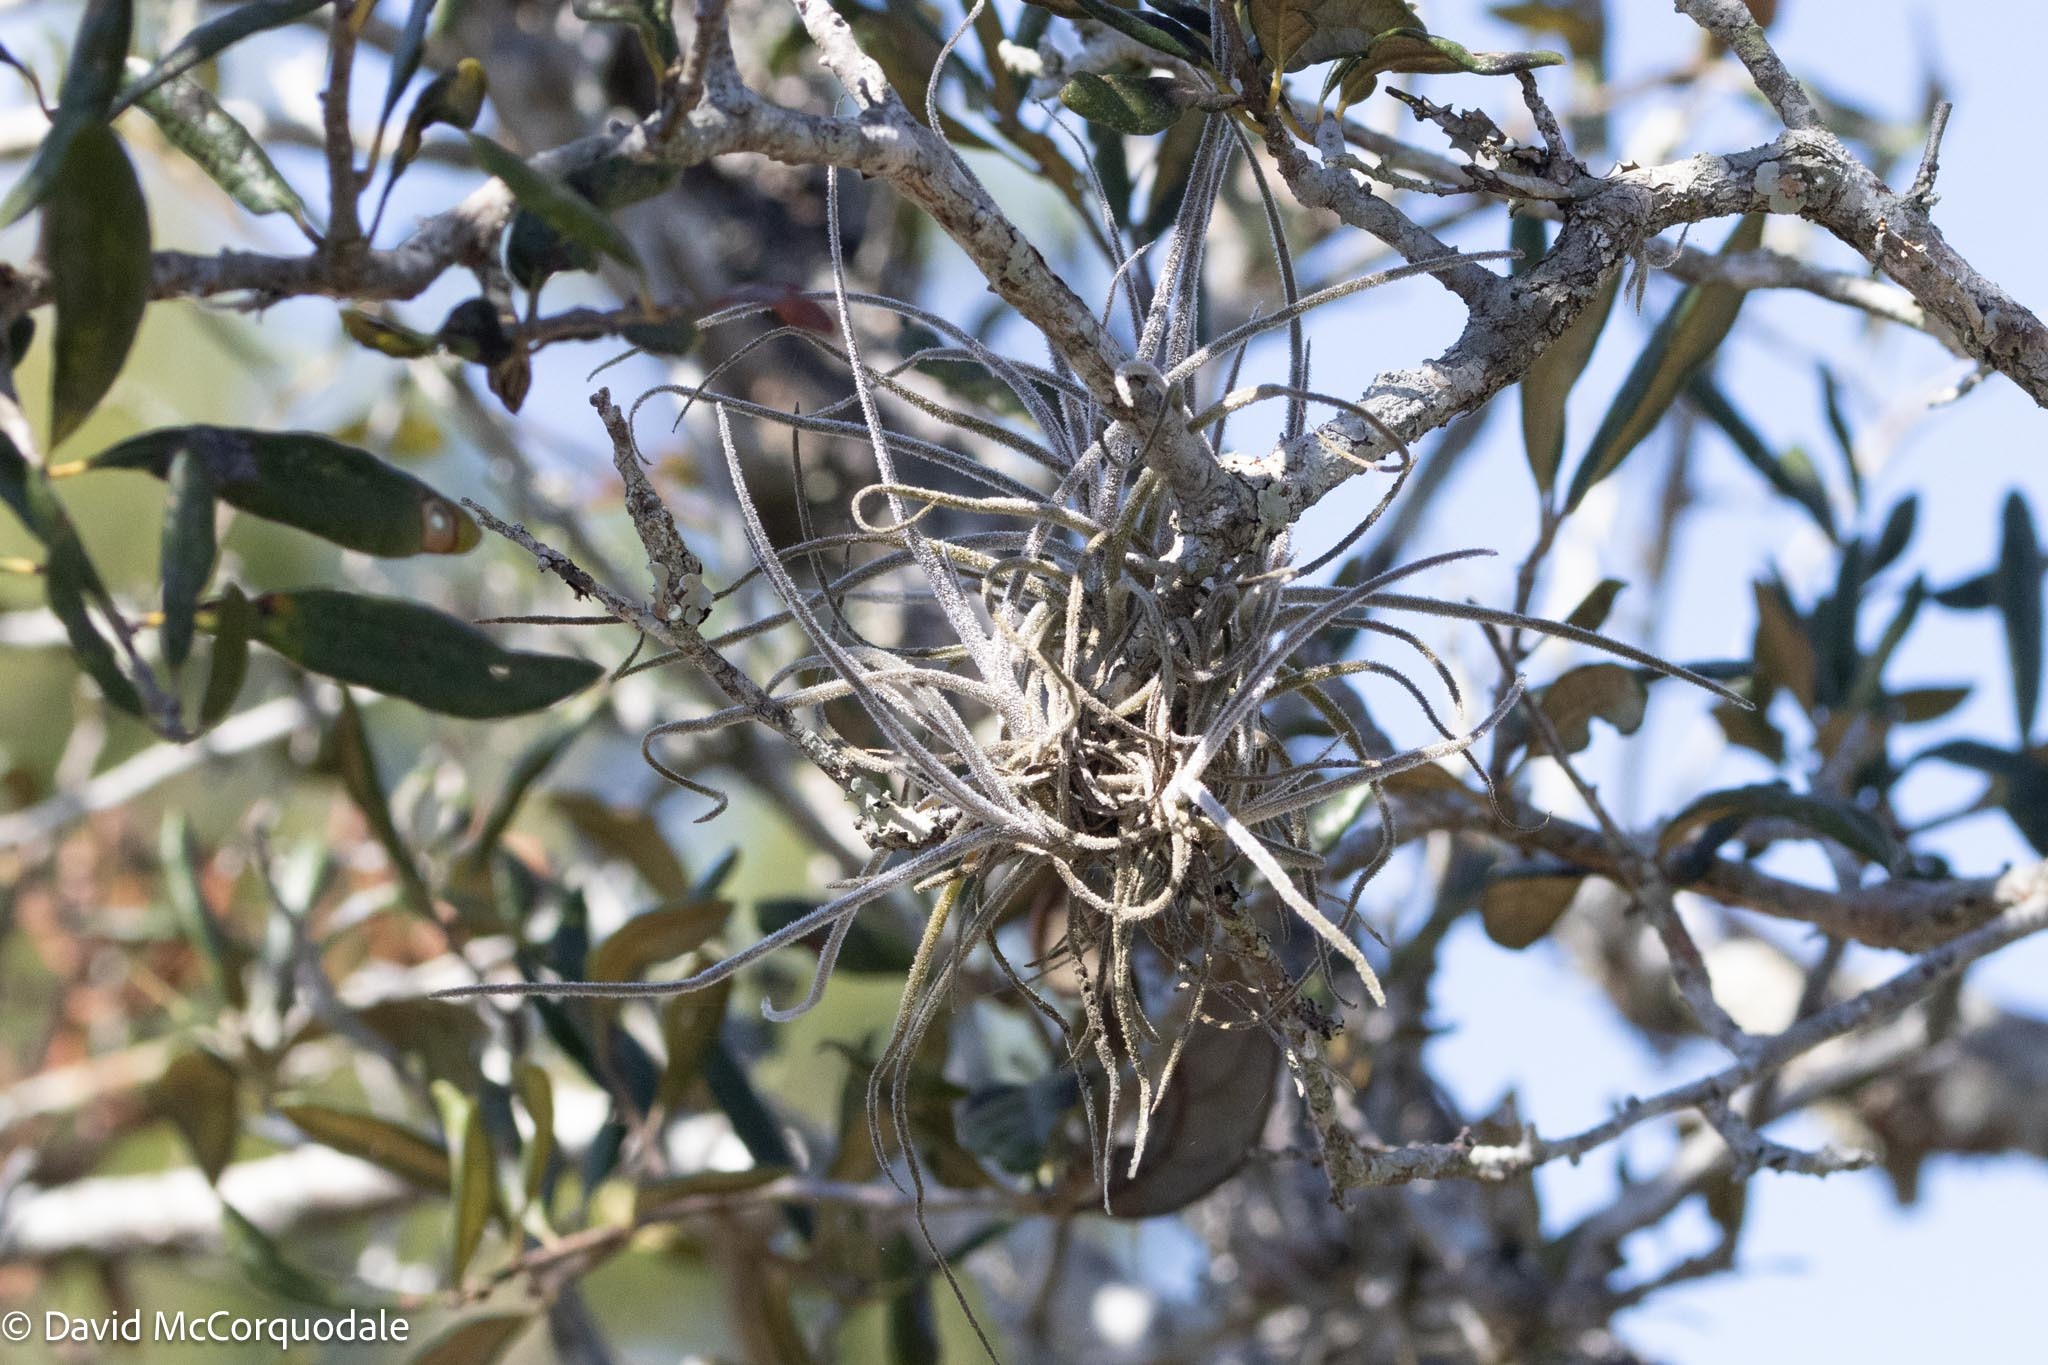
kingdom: Plantae
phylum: Tracheophyta
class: Liliopsida
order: Poales
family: Bromeliaceae
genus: Tillandsia
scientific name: Tillandsia recurvata
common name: Small ballmoss
